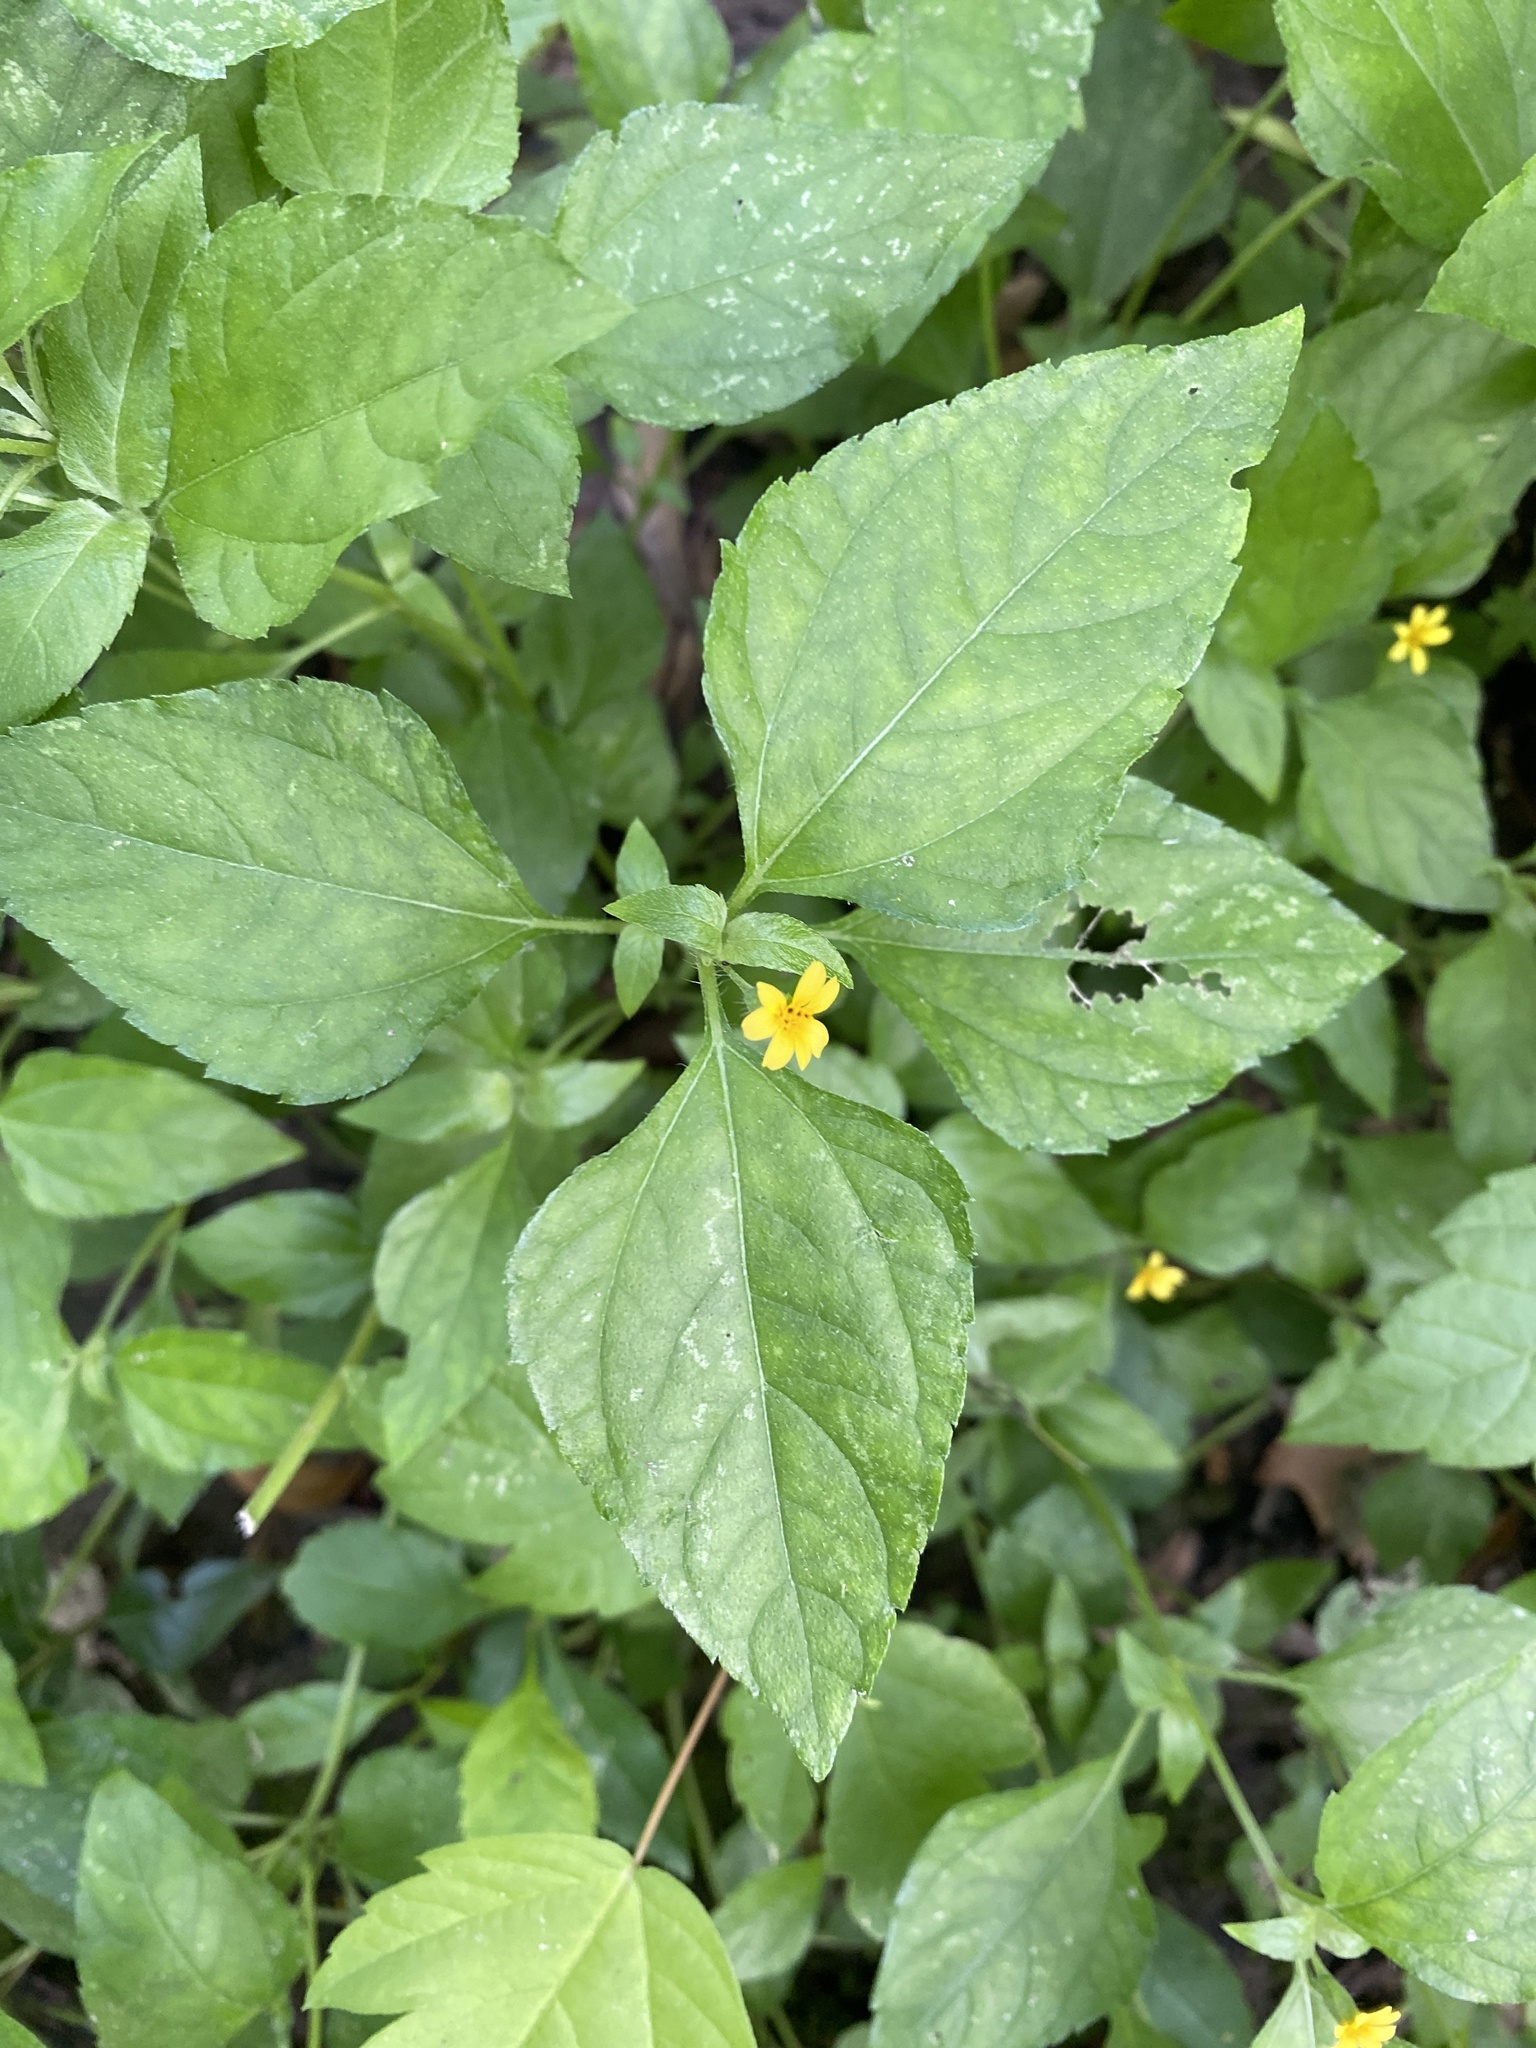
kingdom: Plantae
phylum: Tracheophyta
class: Magnoliopsida
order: Asterales
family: Asteraceae
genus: Calyptocarpus
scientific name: Calyptocarpus vialis
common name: Straggler daisy
